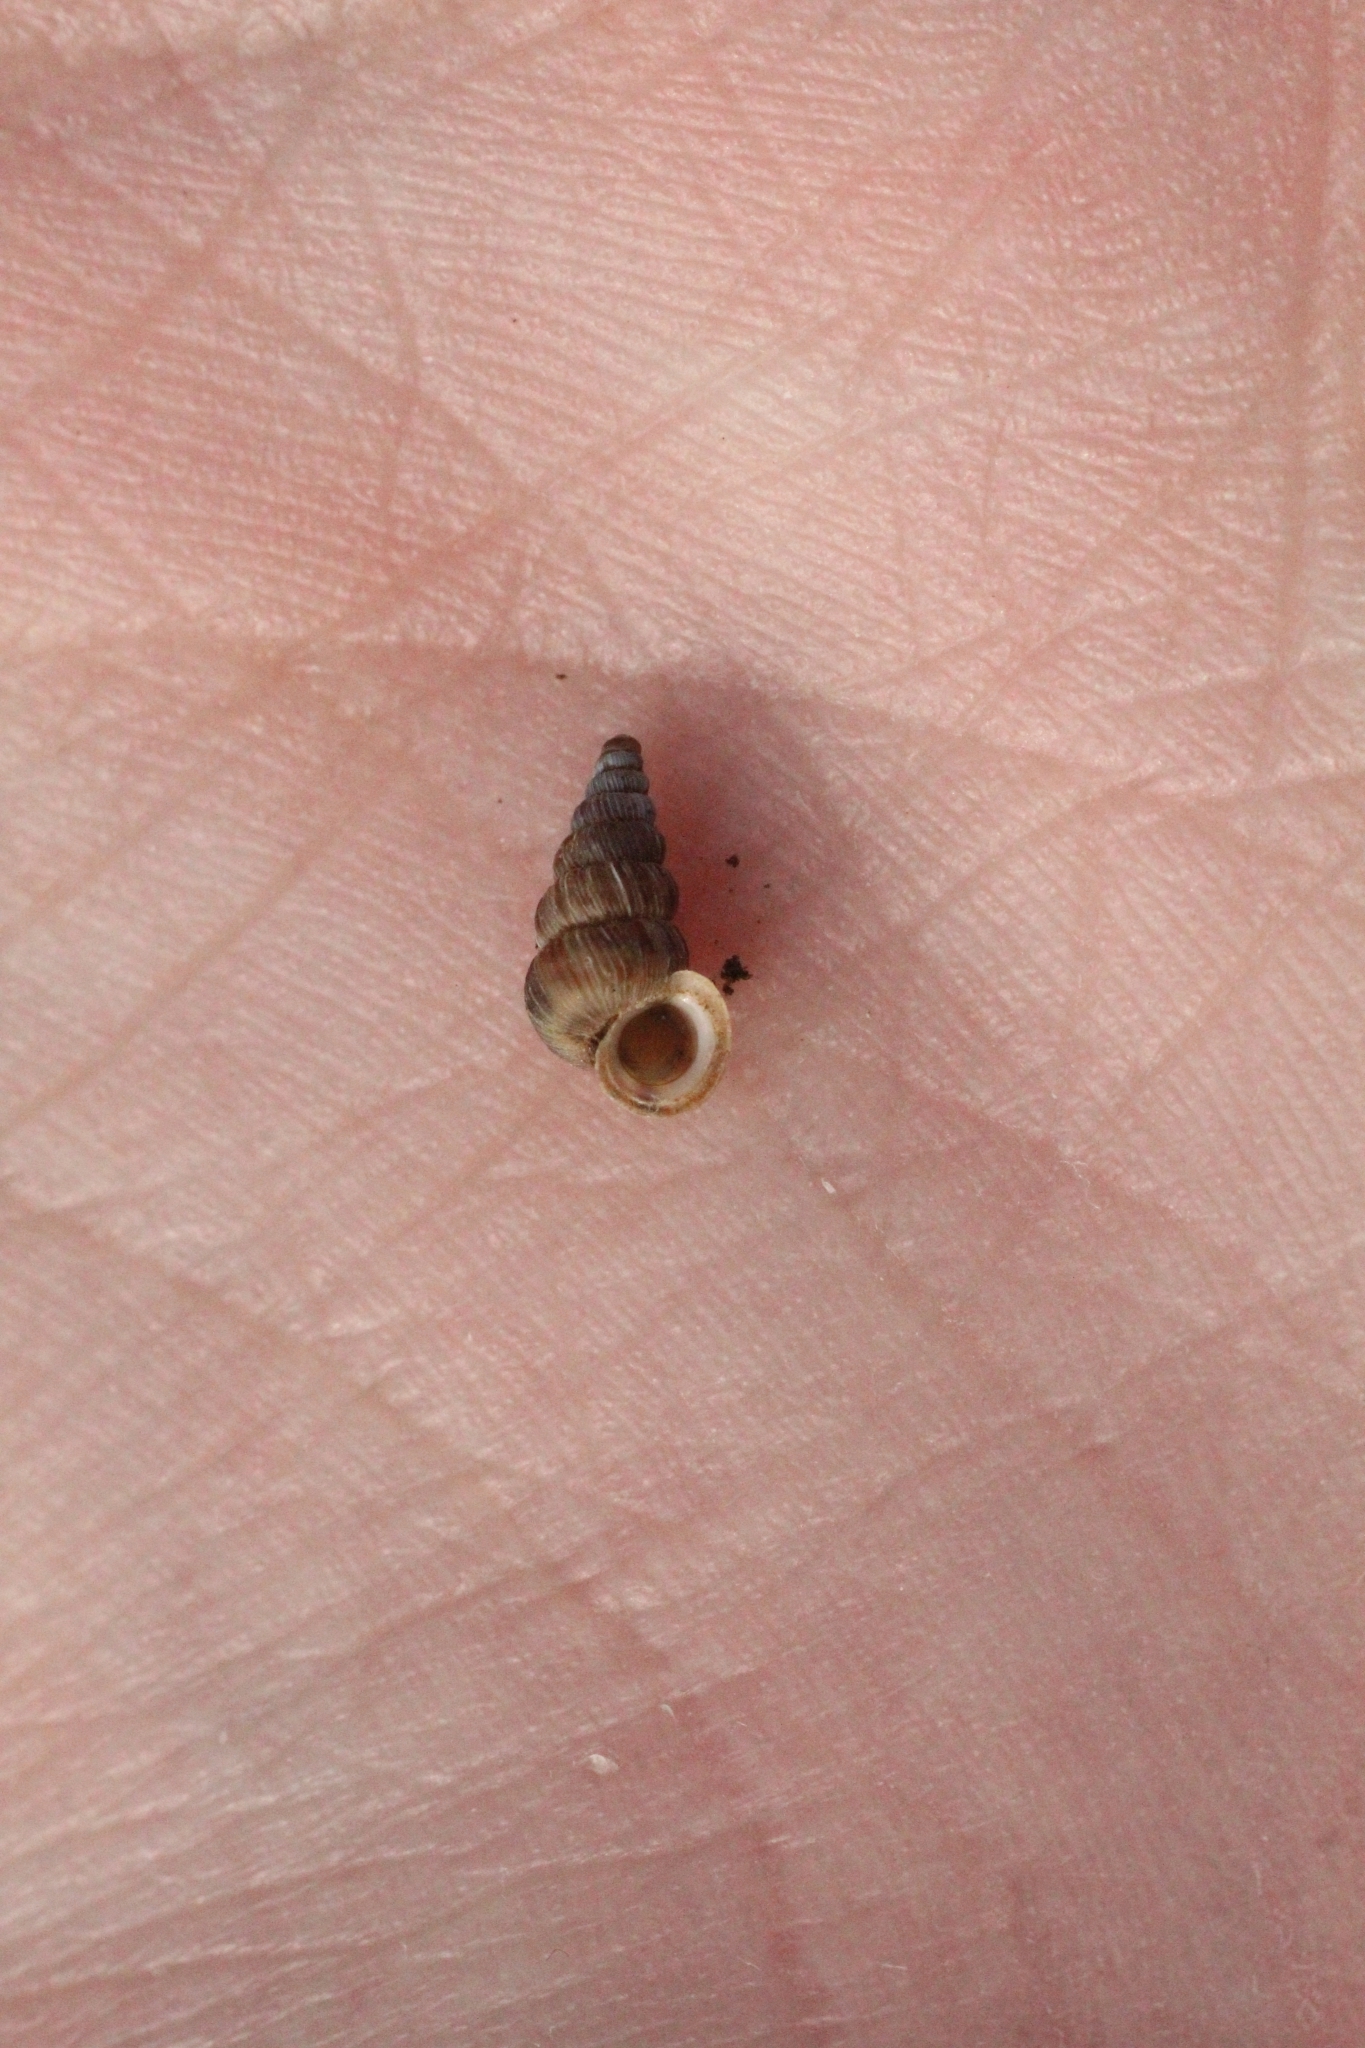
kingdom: Animalia
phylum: Mollusca
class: Gastropoda
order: Architaenioglossa
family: Cochlostomatidae
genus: Cochlostoma
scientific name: Cochlostoma septemspirale
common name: Seven-whorl snail
